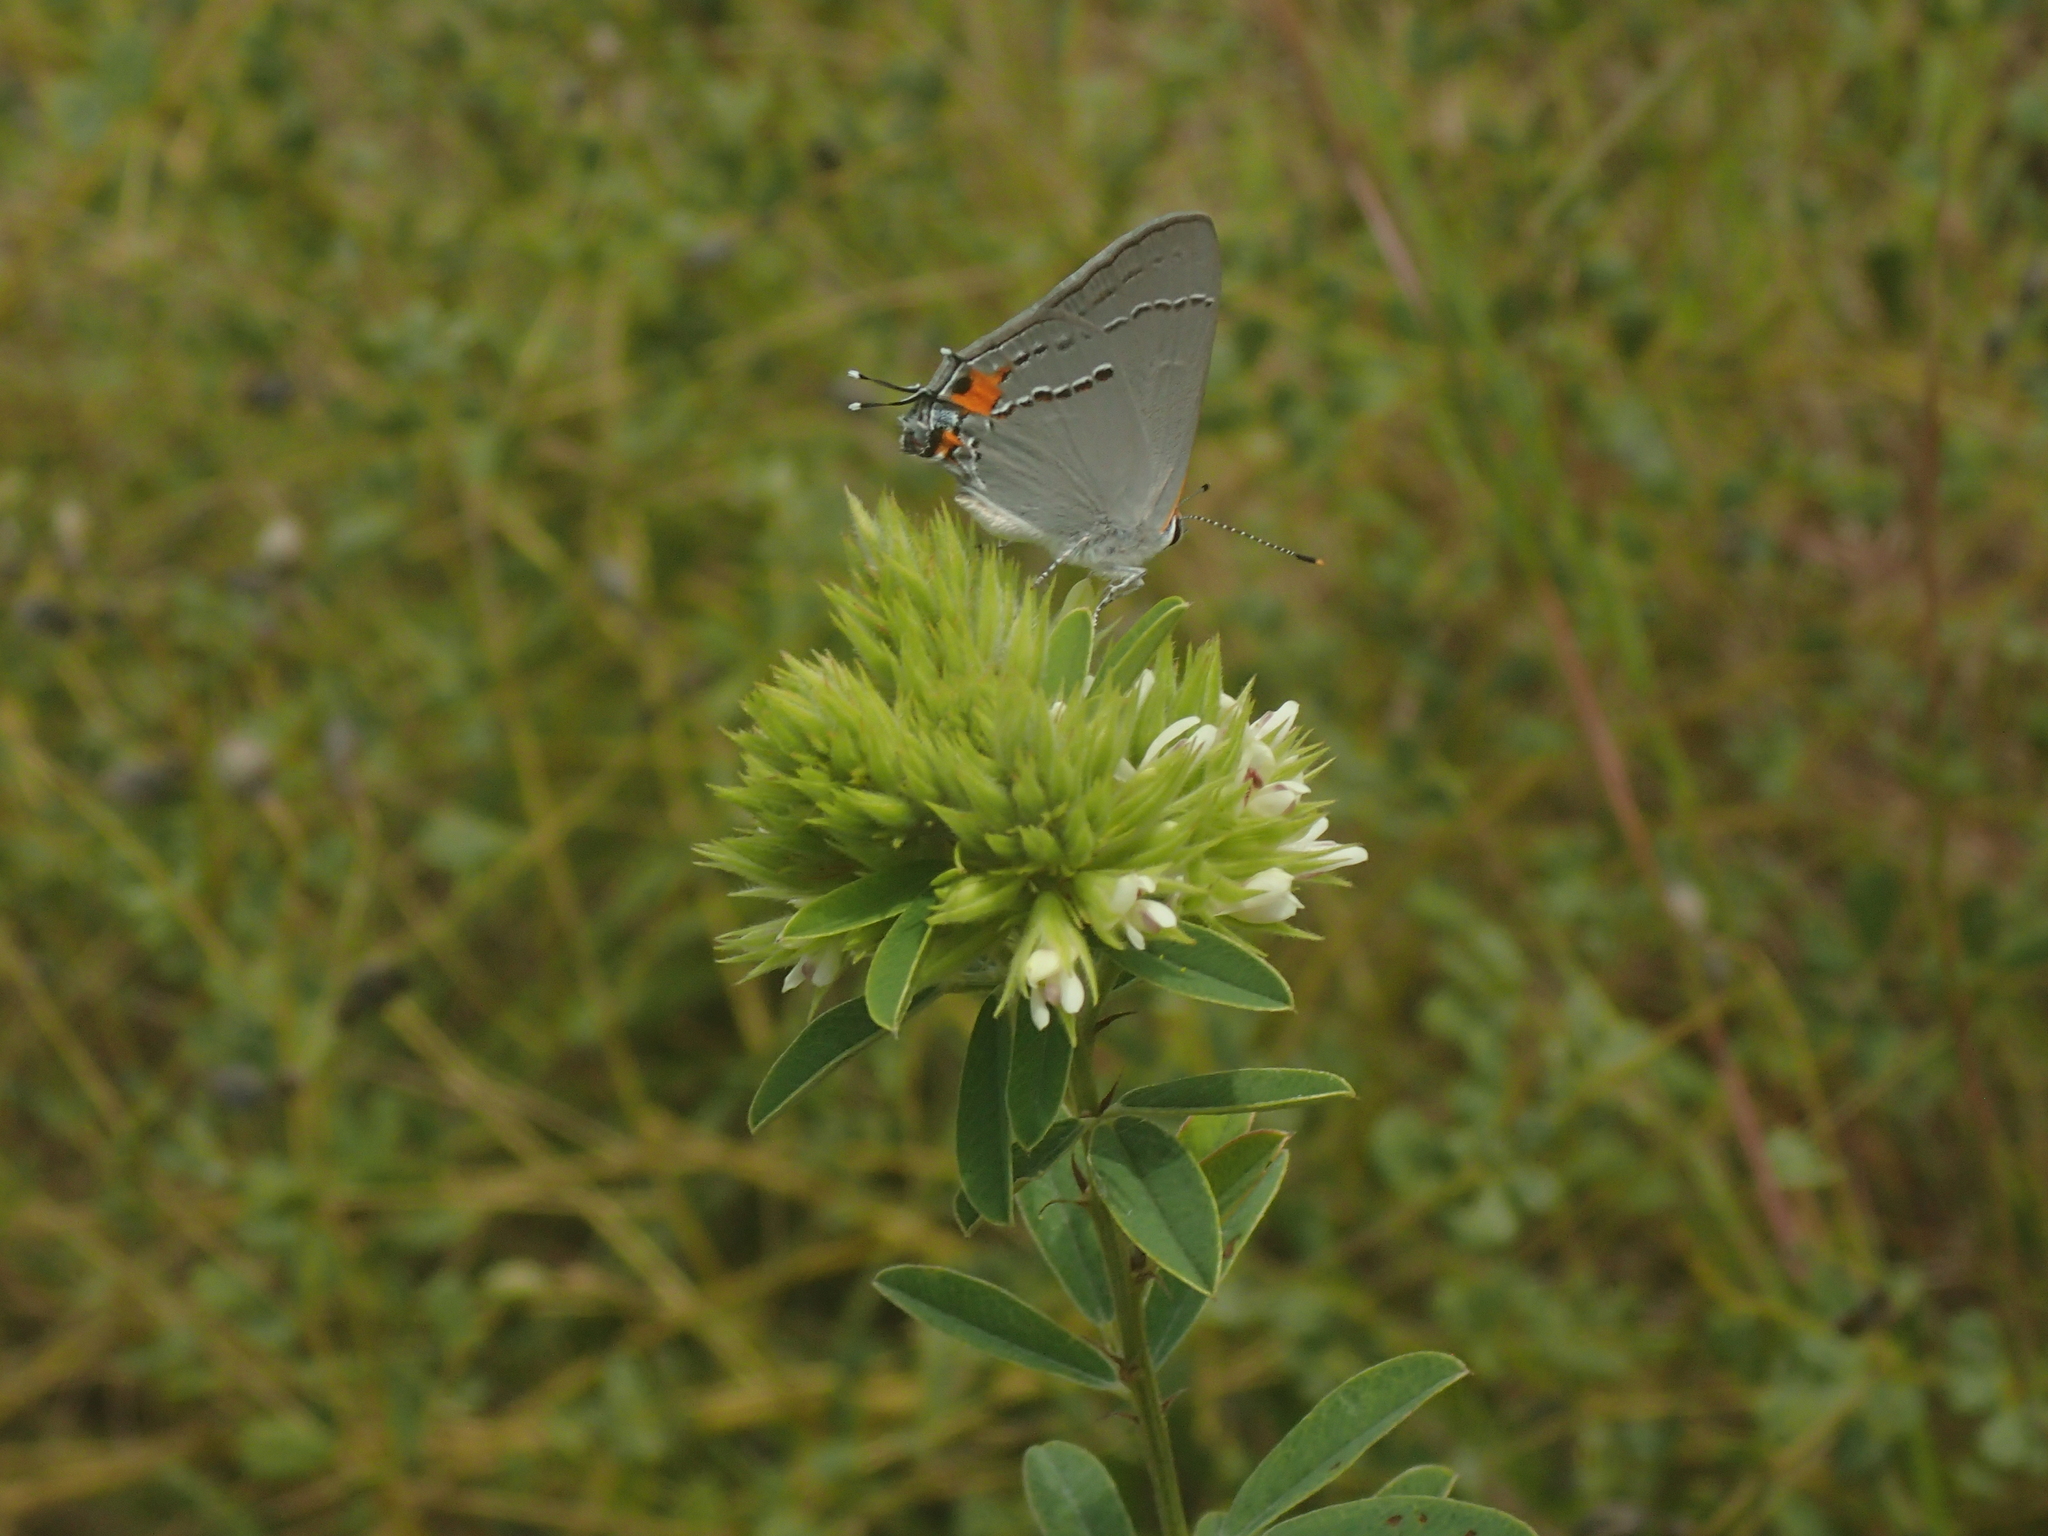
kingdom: Animalia
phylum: Arthropoda
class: Insecta
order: Lepidoptera
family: Lycaenidae
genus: Strymon
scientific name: Strymon melinus
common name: Gray hairstreak
